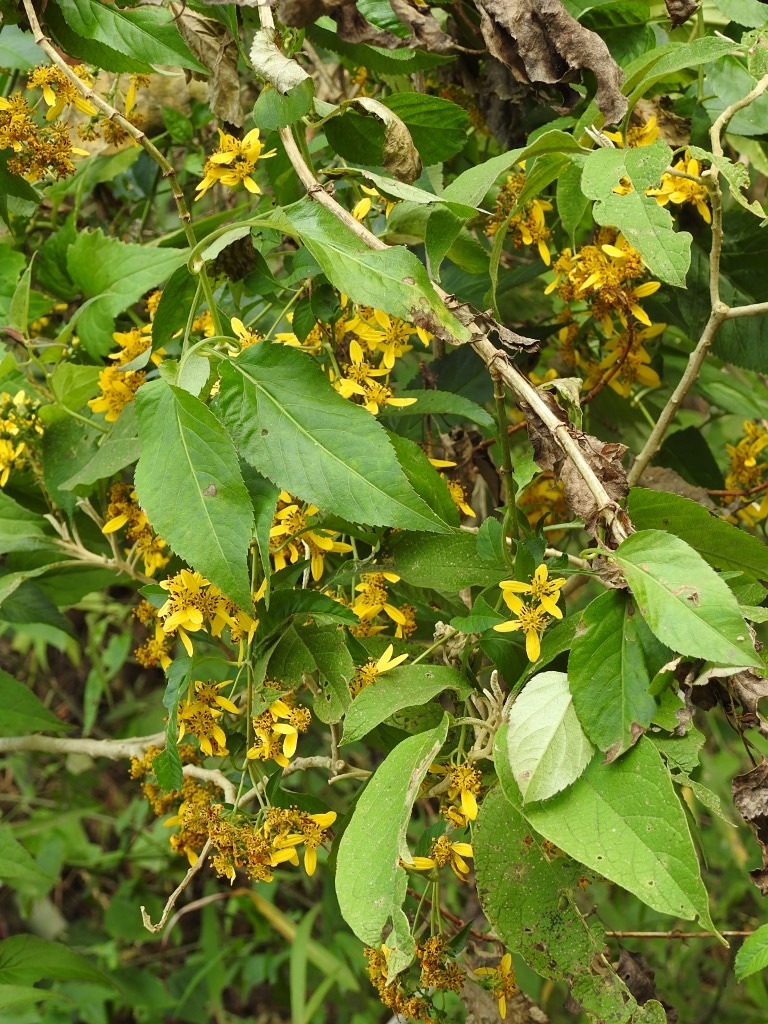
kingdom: Plantae
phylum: Tracheophyta
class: Magnoliopsida
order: Asterales
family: Asteraceae
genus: Bidens
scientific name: Bidens reptans
